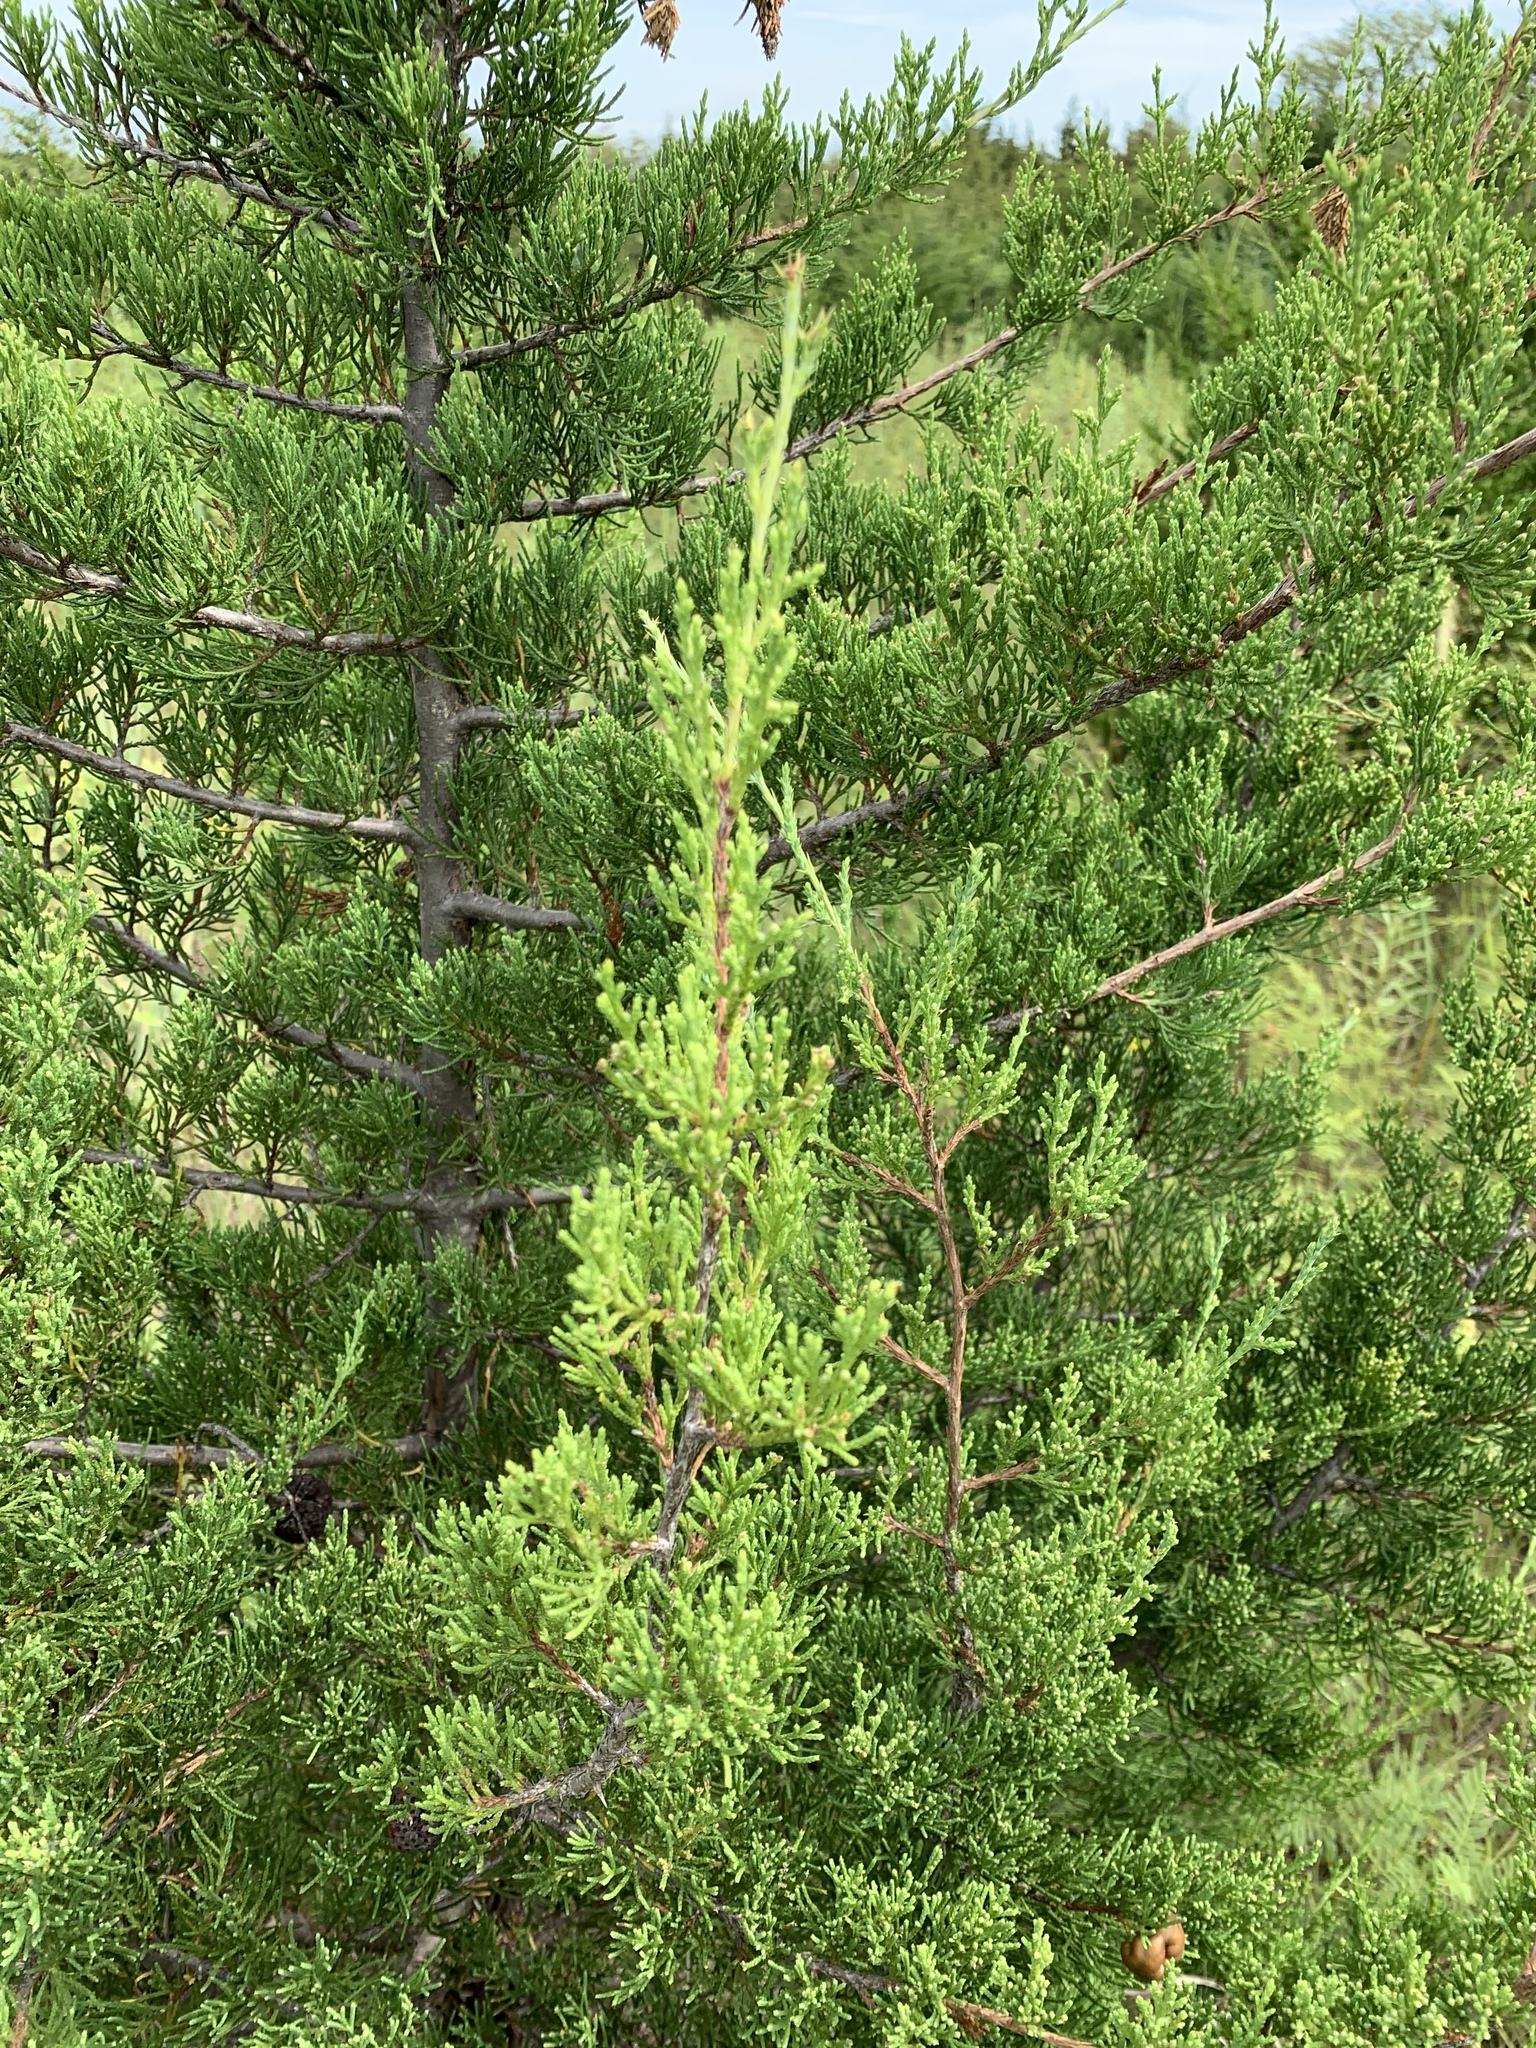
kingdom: Plantae
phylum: Tracheophyta
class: Pinopsida
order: Pinales
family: Cupressaceae
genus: Juniperus
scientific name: Juniperus virginiana
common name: Red juniper
